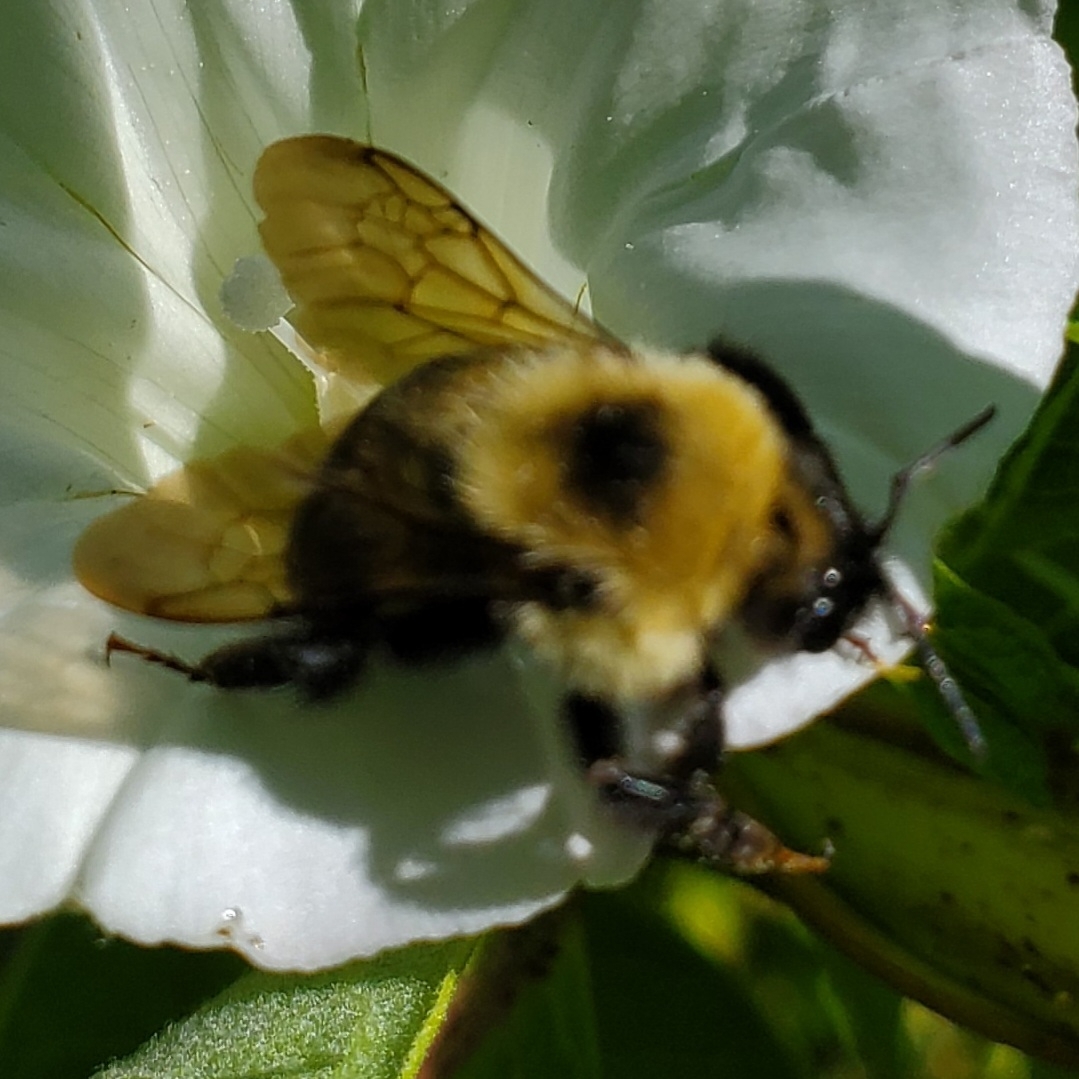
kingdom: Animalia
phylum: Arthropoda
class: Insecta
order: Hymenoptera
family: Apidae
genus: Bombus
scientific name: Bombus bimaculatus
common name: Two-spotted bumble bee
